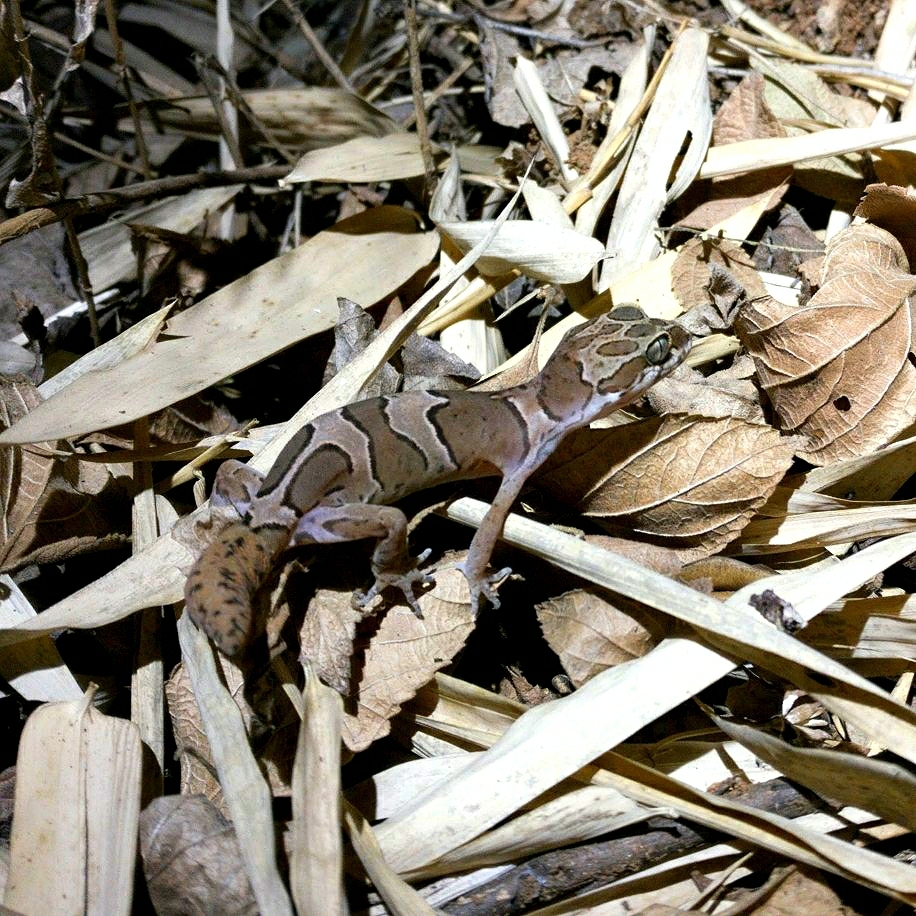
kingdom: Animalia
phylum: Chordata
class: Squamata
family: Gekkonidae
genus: Cyrtodactylus
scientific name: Cyrtodactylus collegalensis
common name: Forest spotted gecko
